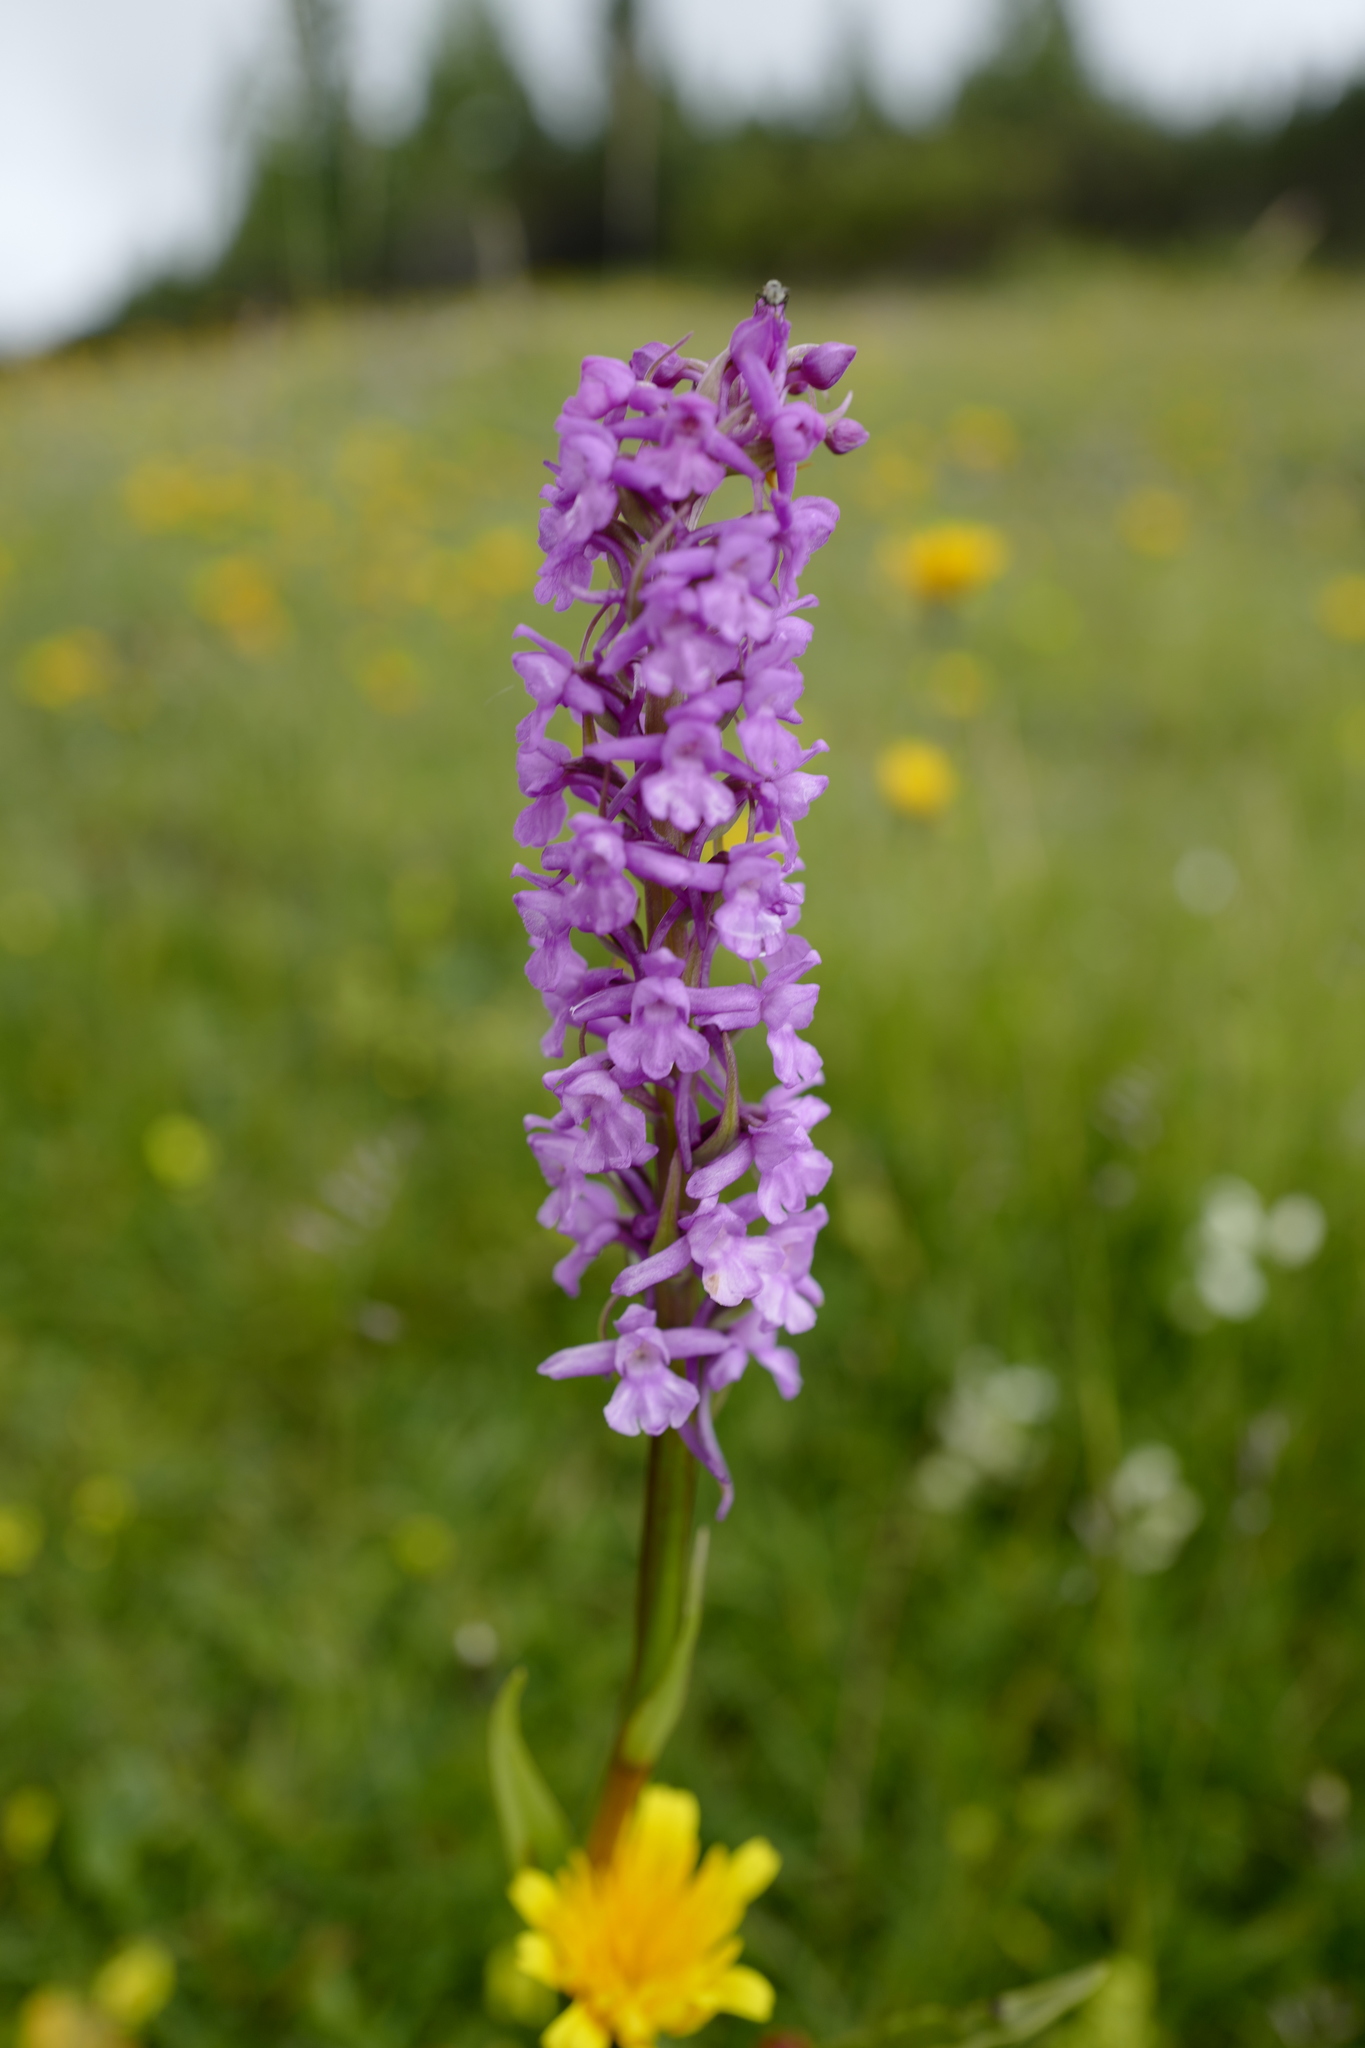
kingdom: Plantae
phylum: Tracheophyta
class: Liliopsida
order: Asparagales
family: Orchidaceae
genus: Gymnadenia
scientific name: Gymnadenia conopsea
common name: Fragrant orchid
